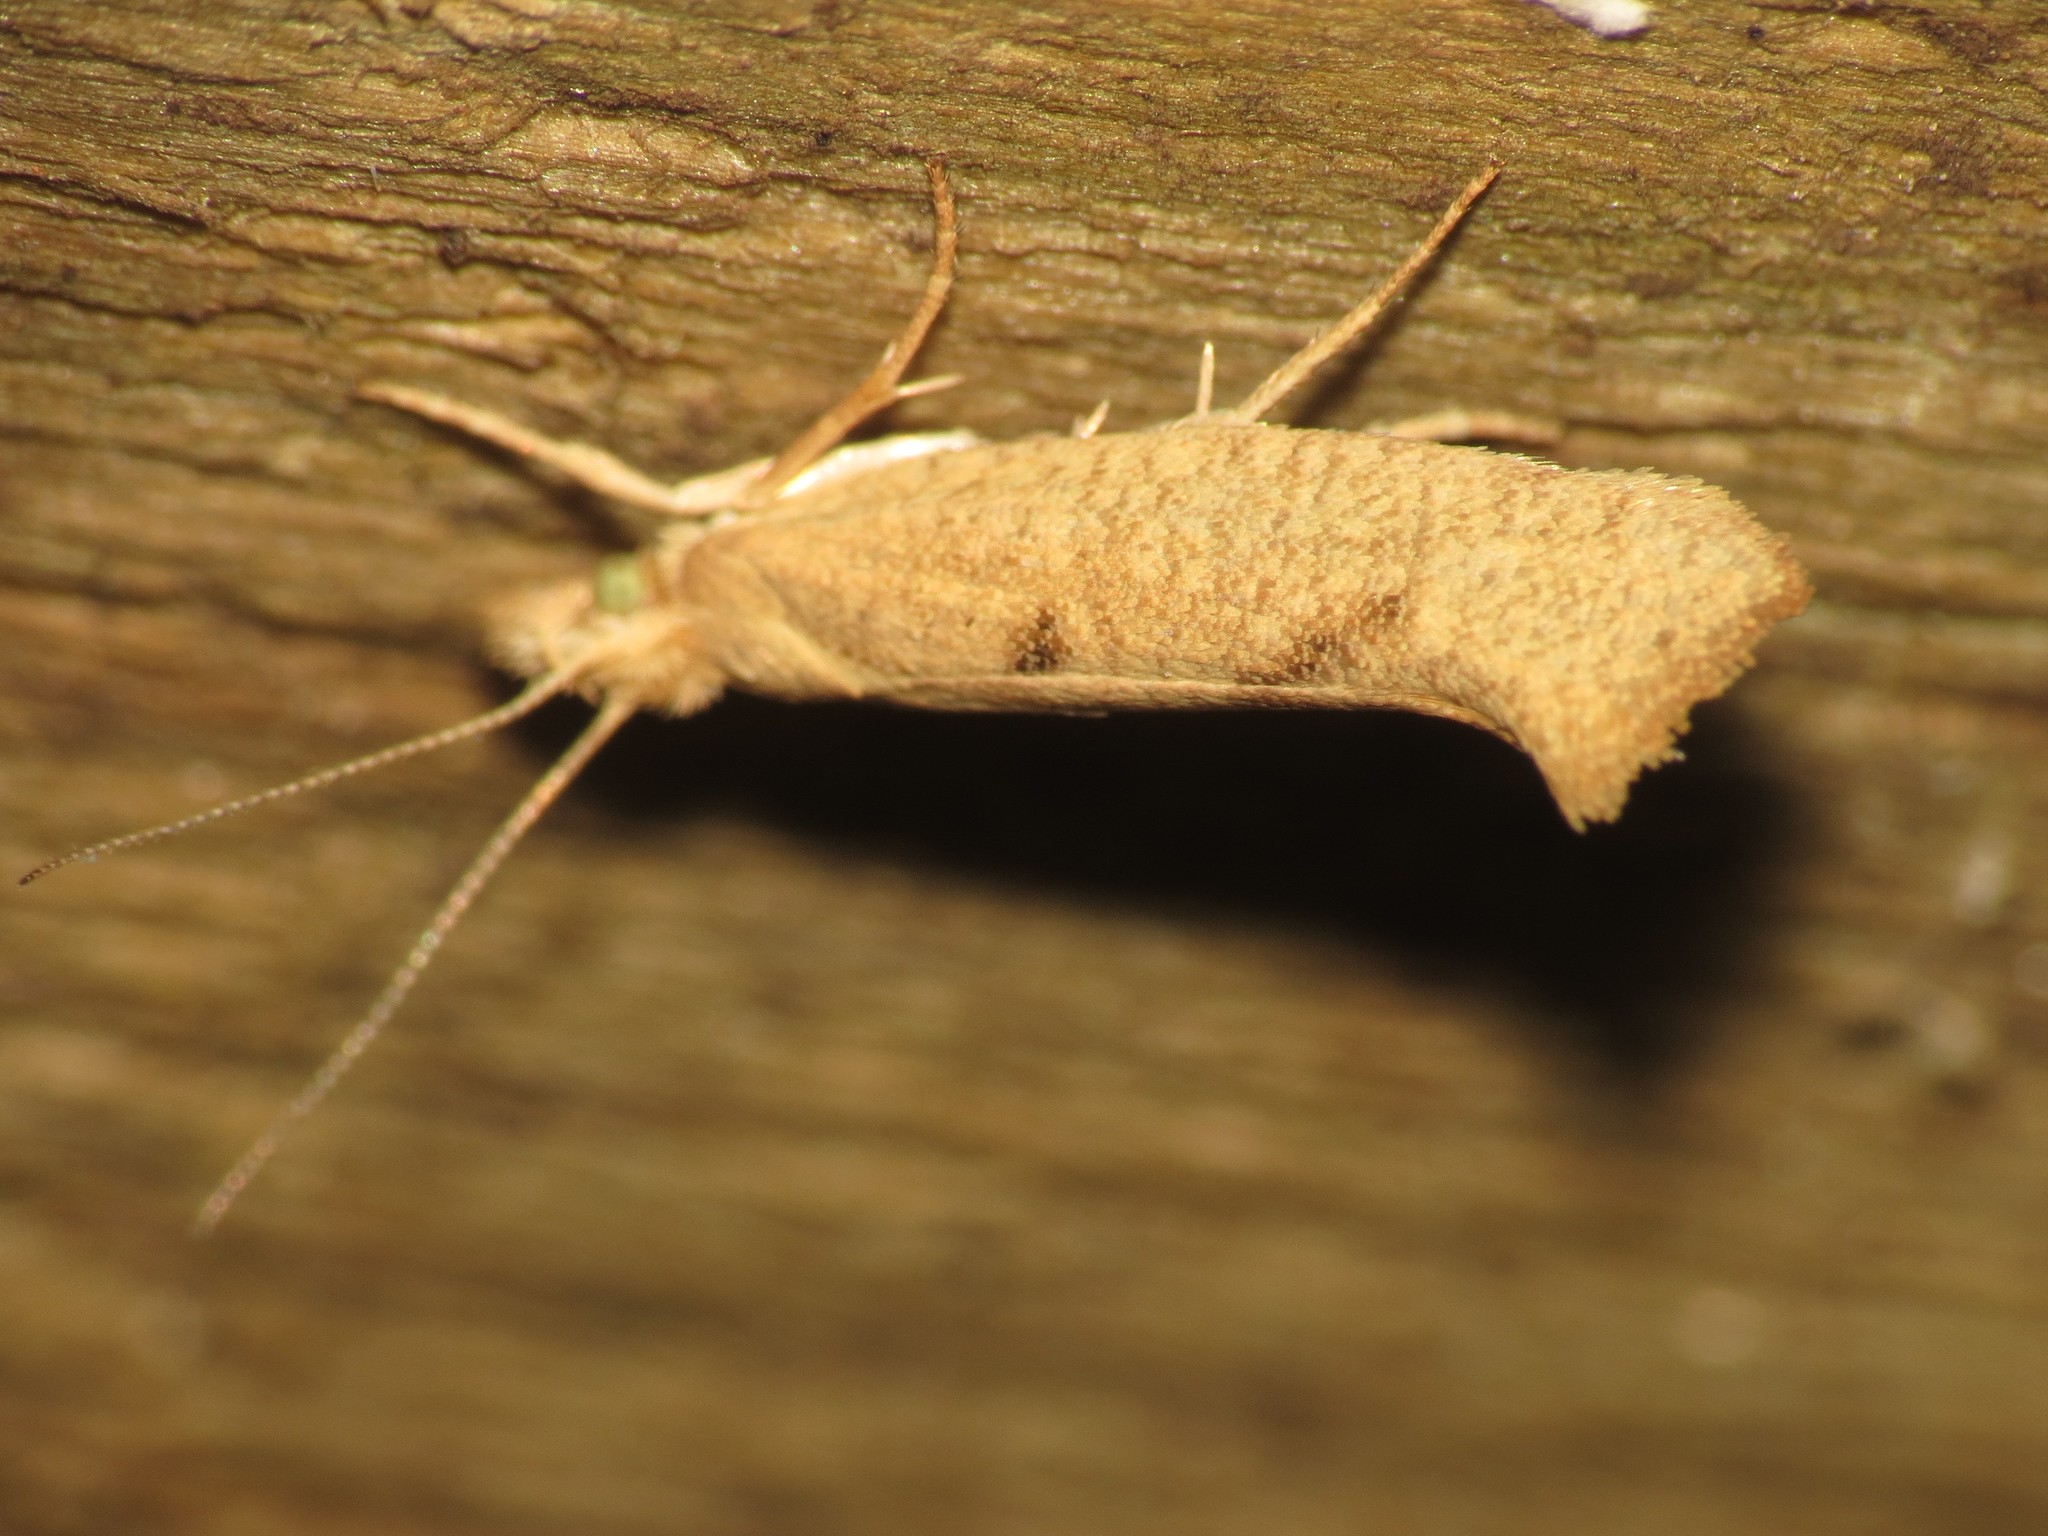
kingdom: Animalia
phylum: Arthropoda
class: Insecta
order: Lepidoptera
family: Ypsolophidae
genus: Ypsolopha
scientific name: Ypsolopha alpella
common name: Barred smudge
